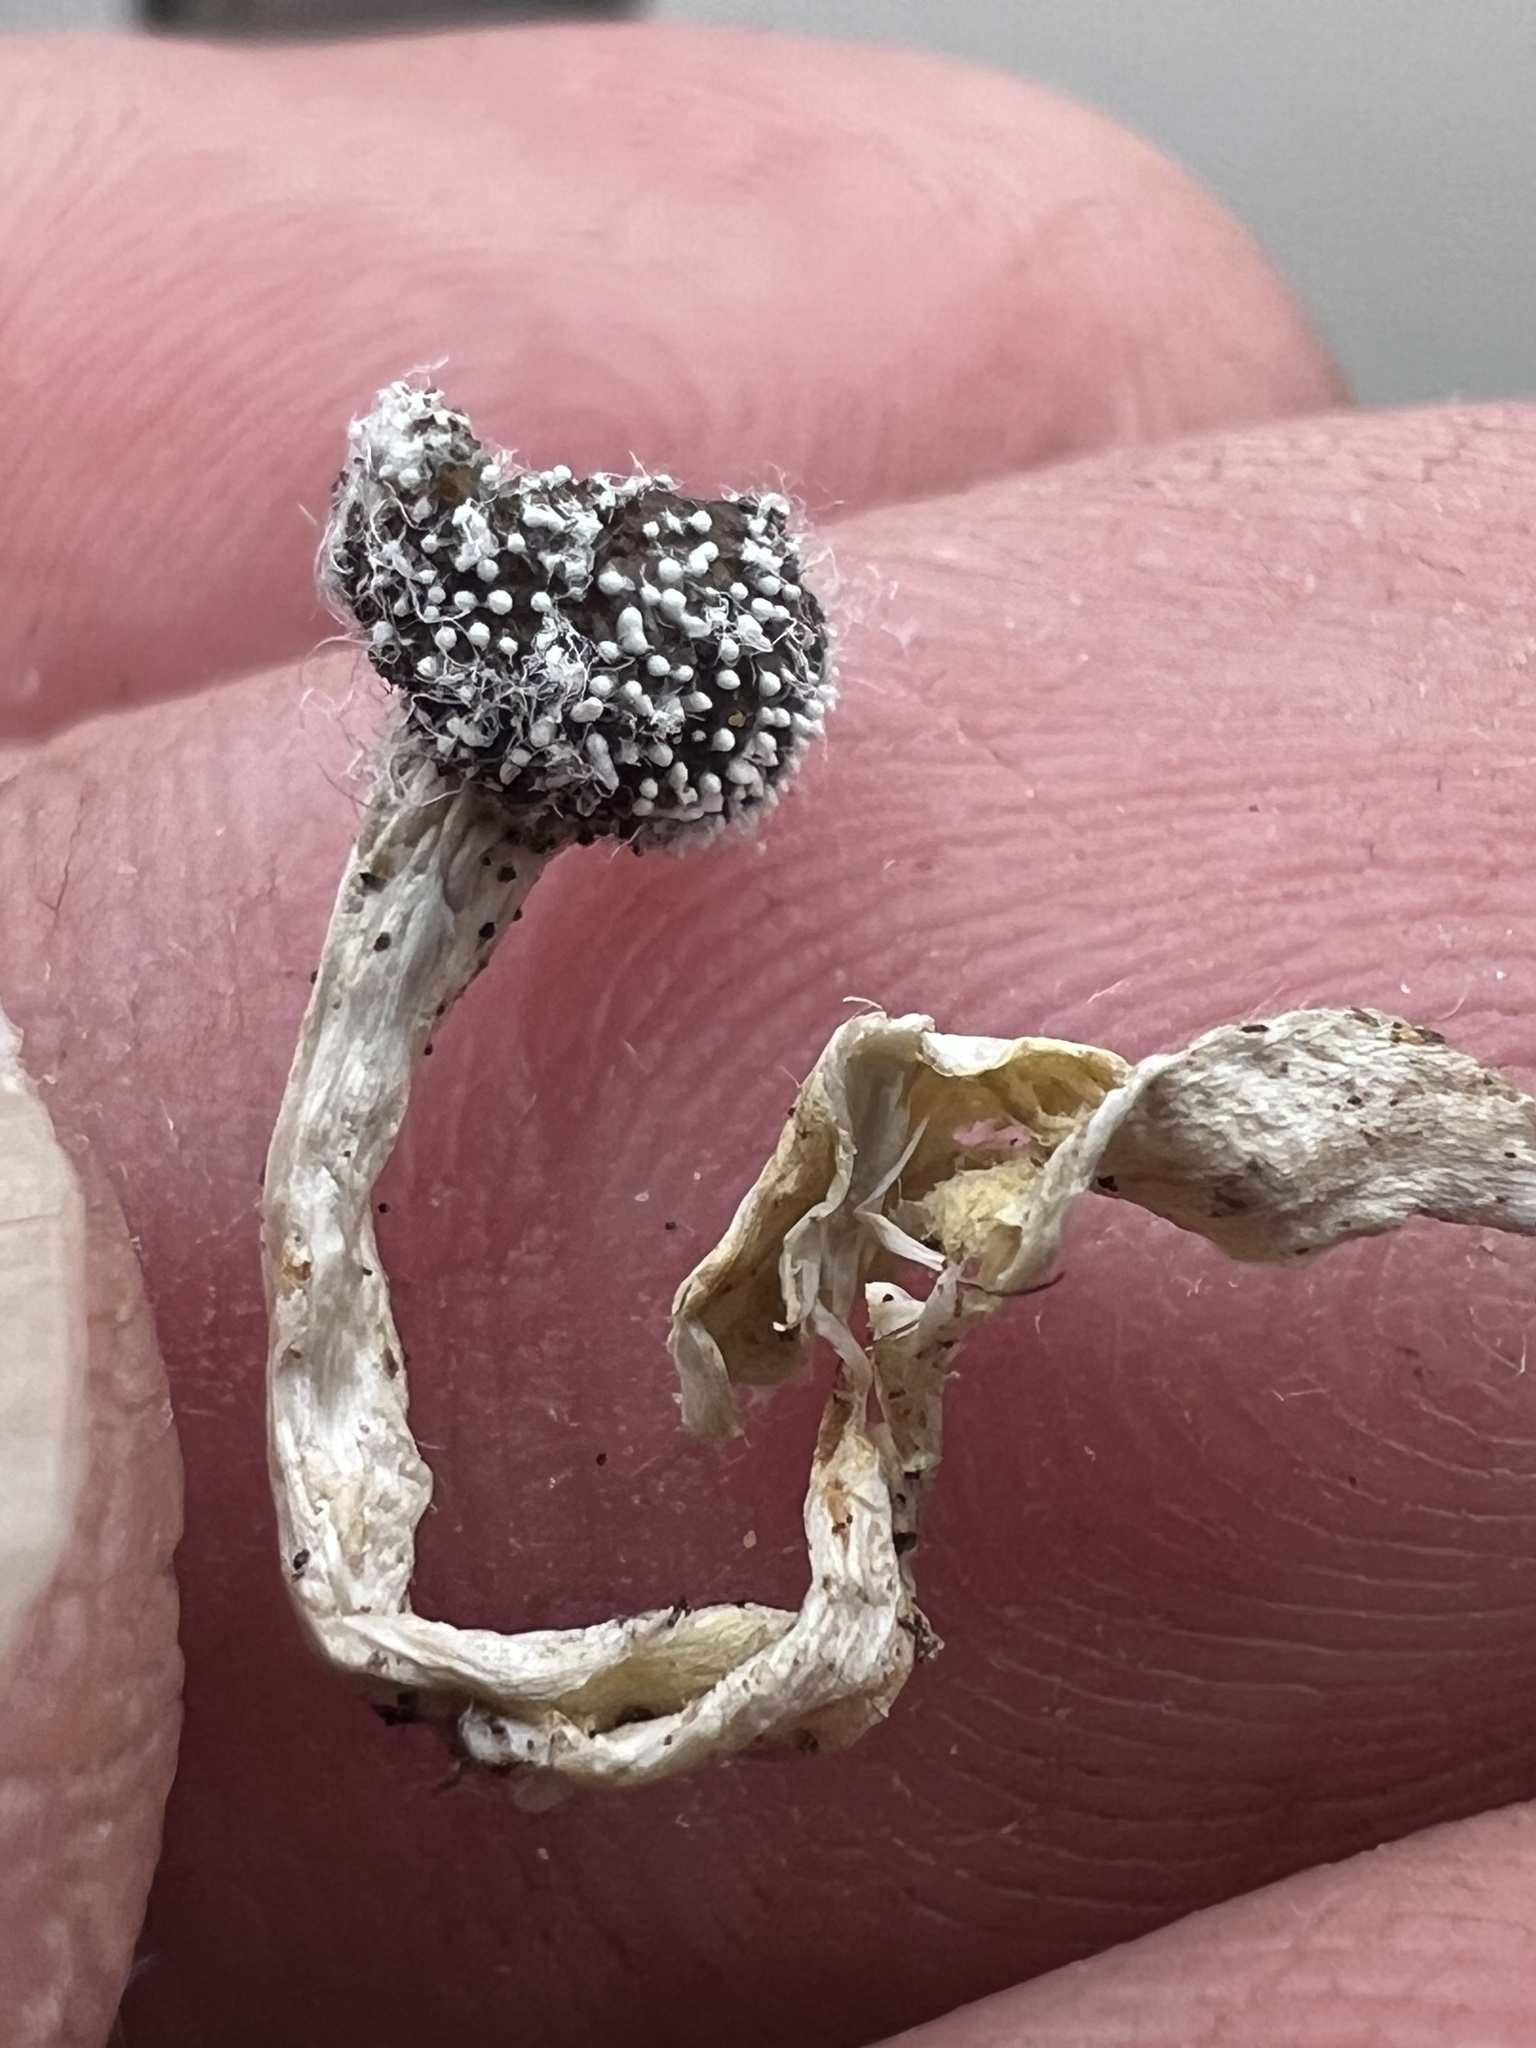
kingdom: Fungi
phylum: Ascomycota
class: Sordariomycetes
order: Hypocreales
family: Ophiocordycipitaceae
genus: Tolypocladium
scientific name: Tolypocladium rouxii
